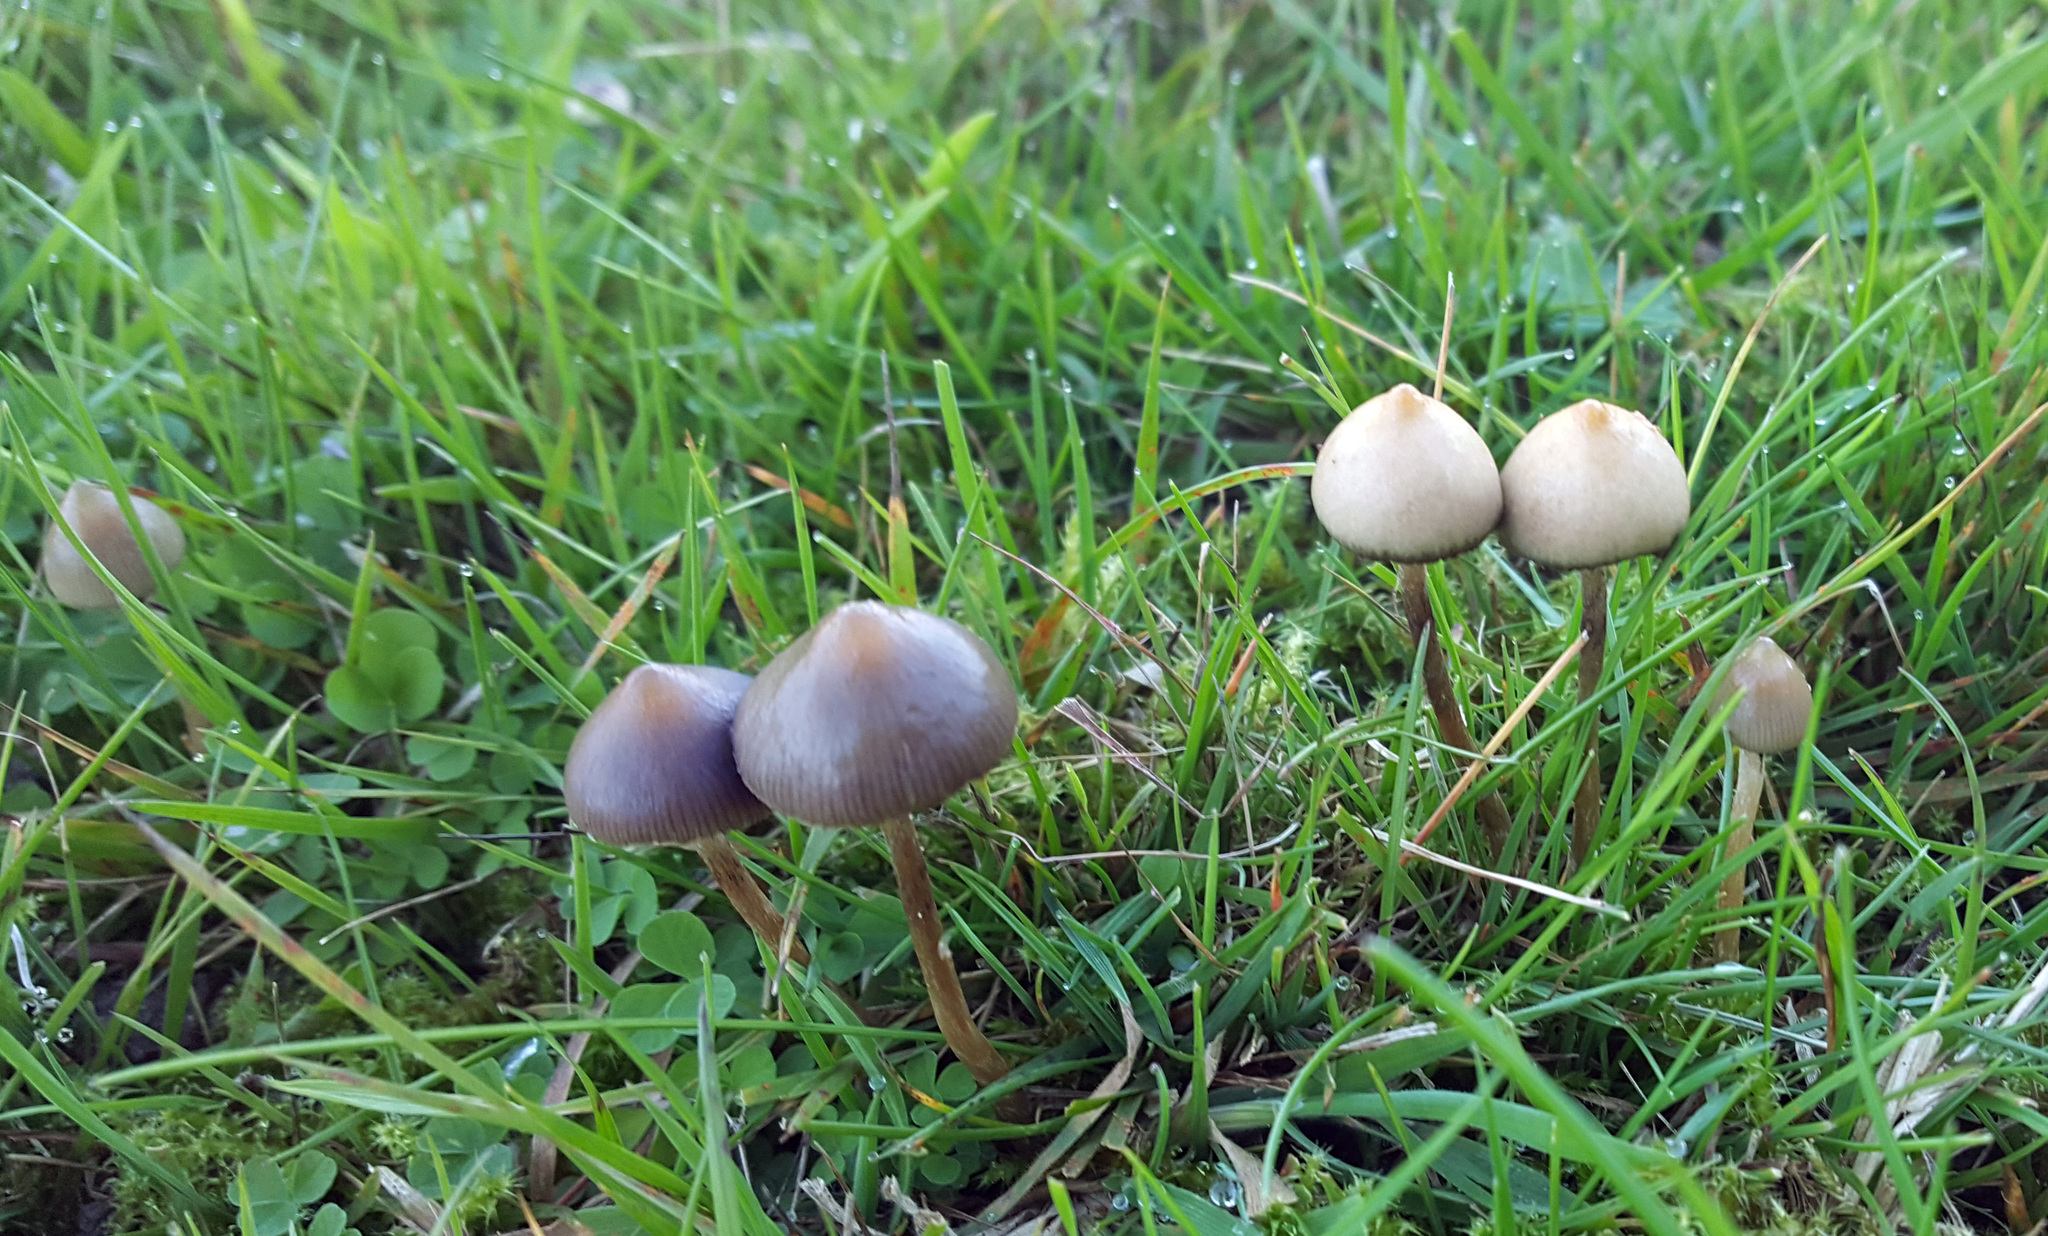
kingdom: Fungi
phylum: Basidiomycota
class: Agaricomycetes
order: Agaricales
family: Hymenogastraceae
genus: Psilocybe
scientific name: Psilocybe semilanceata
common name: Liberty cap
